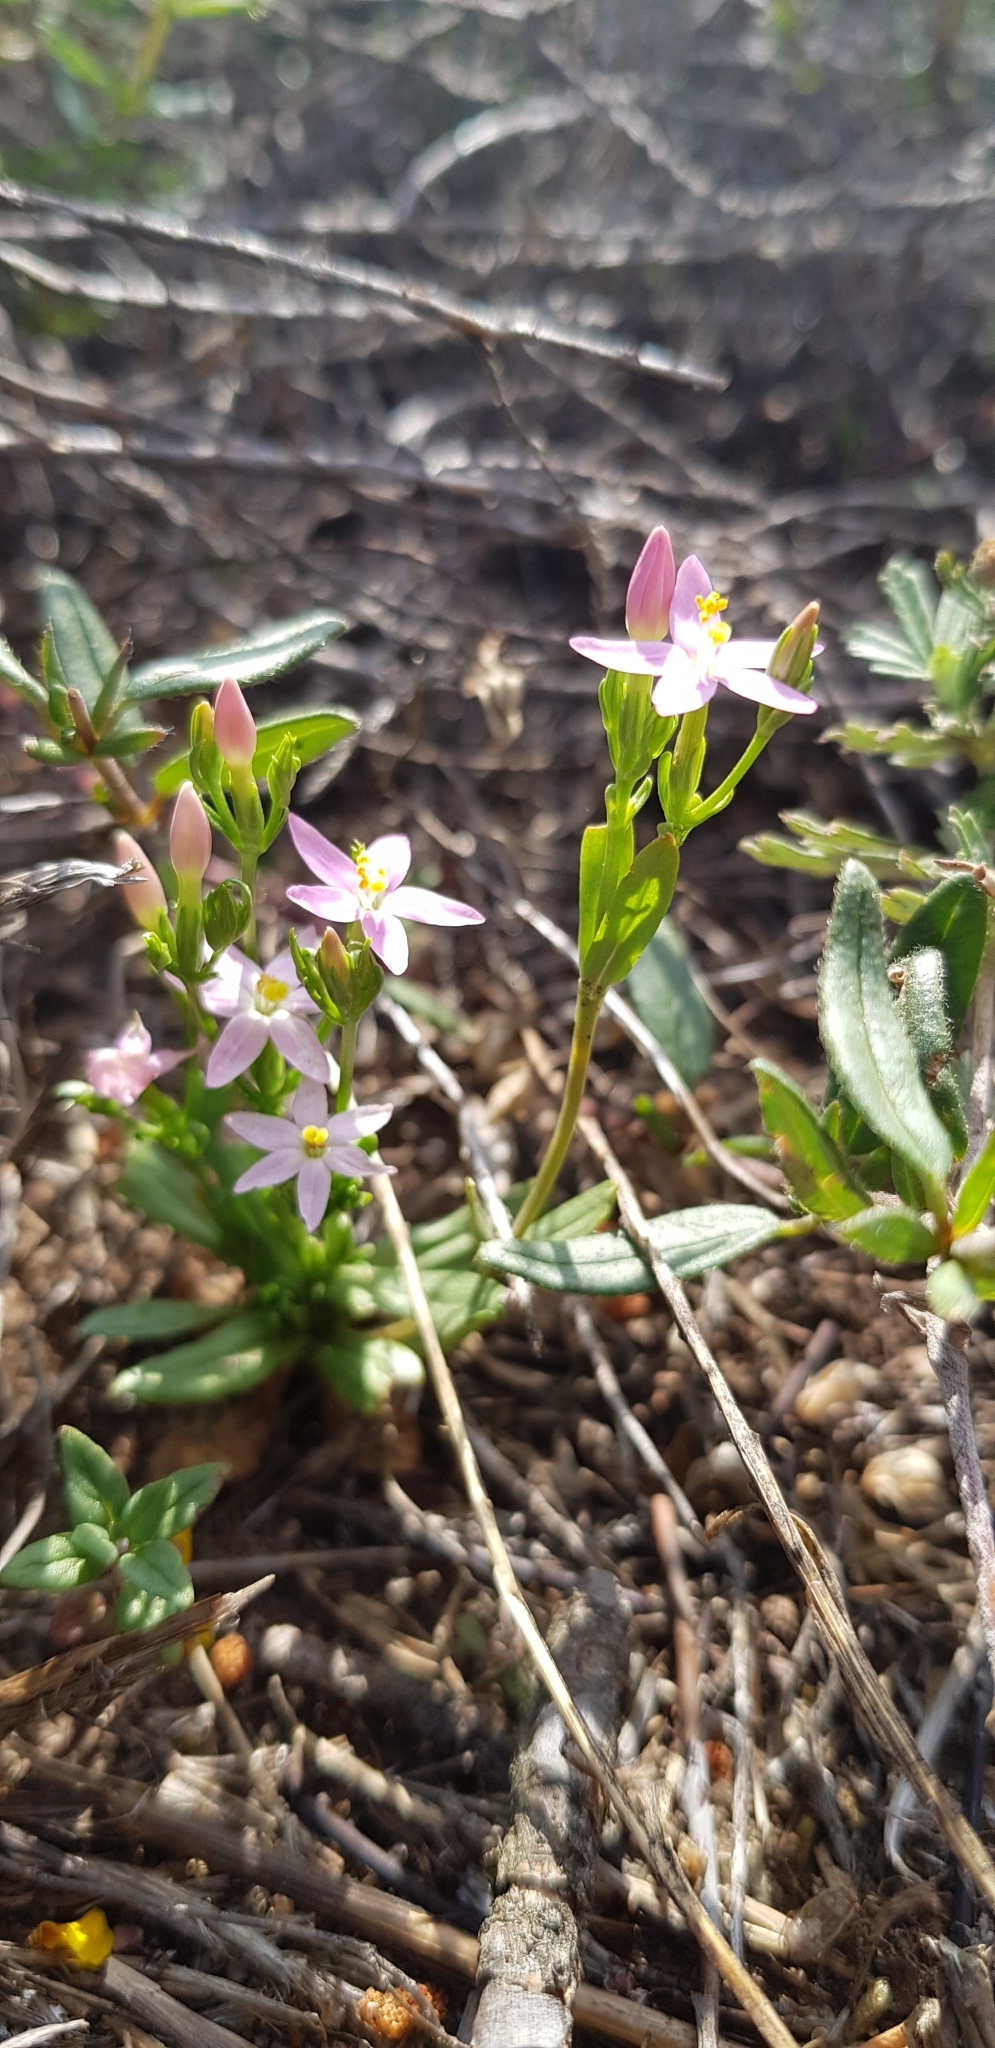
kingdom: Plantae
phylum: Tracheophyta
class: Magnoliopsida
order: Gentianales
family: Gentianaceae
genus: Centaurium
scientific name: Centaurium erythraea
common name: Common centaury
